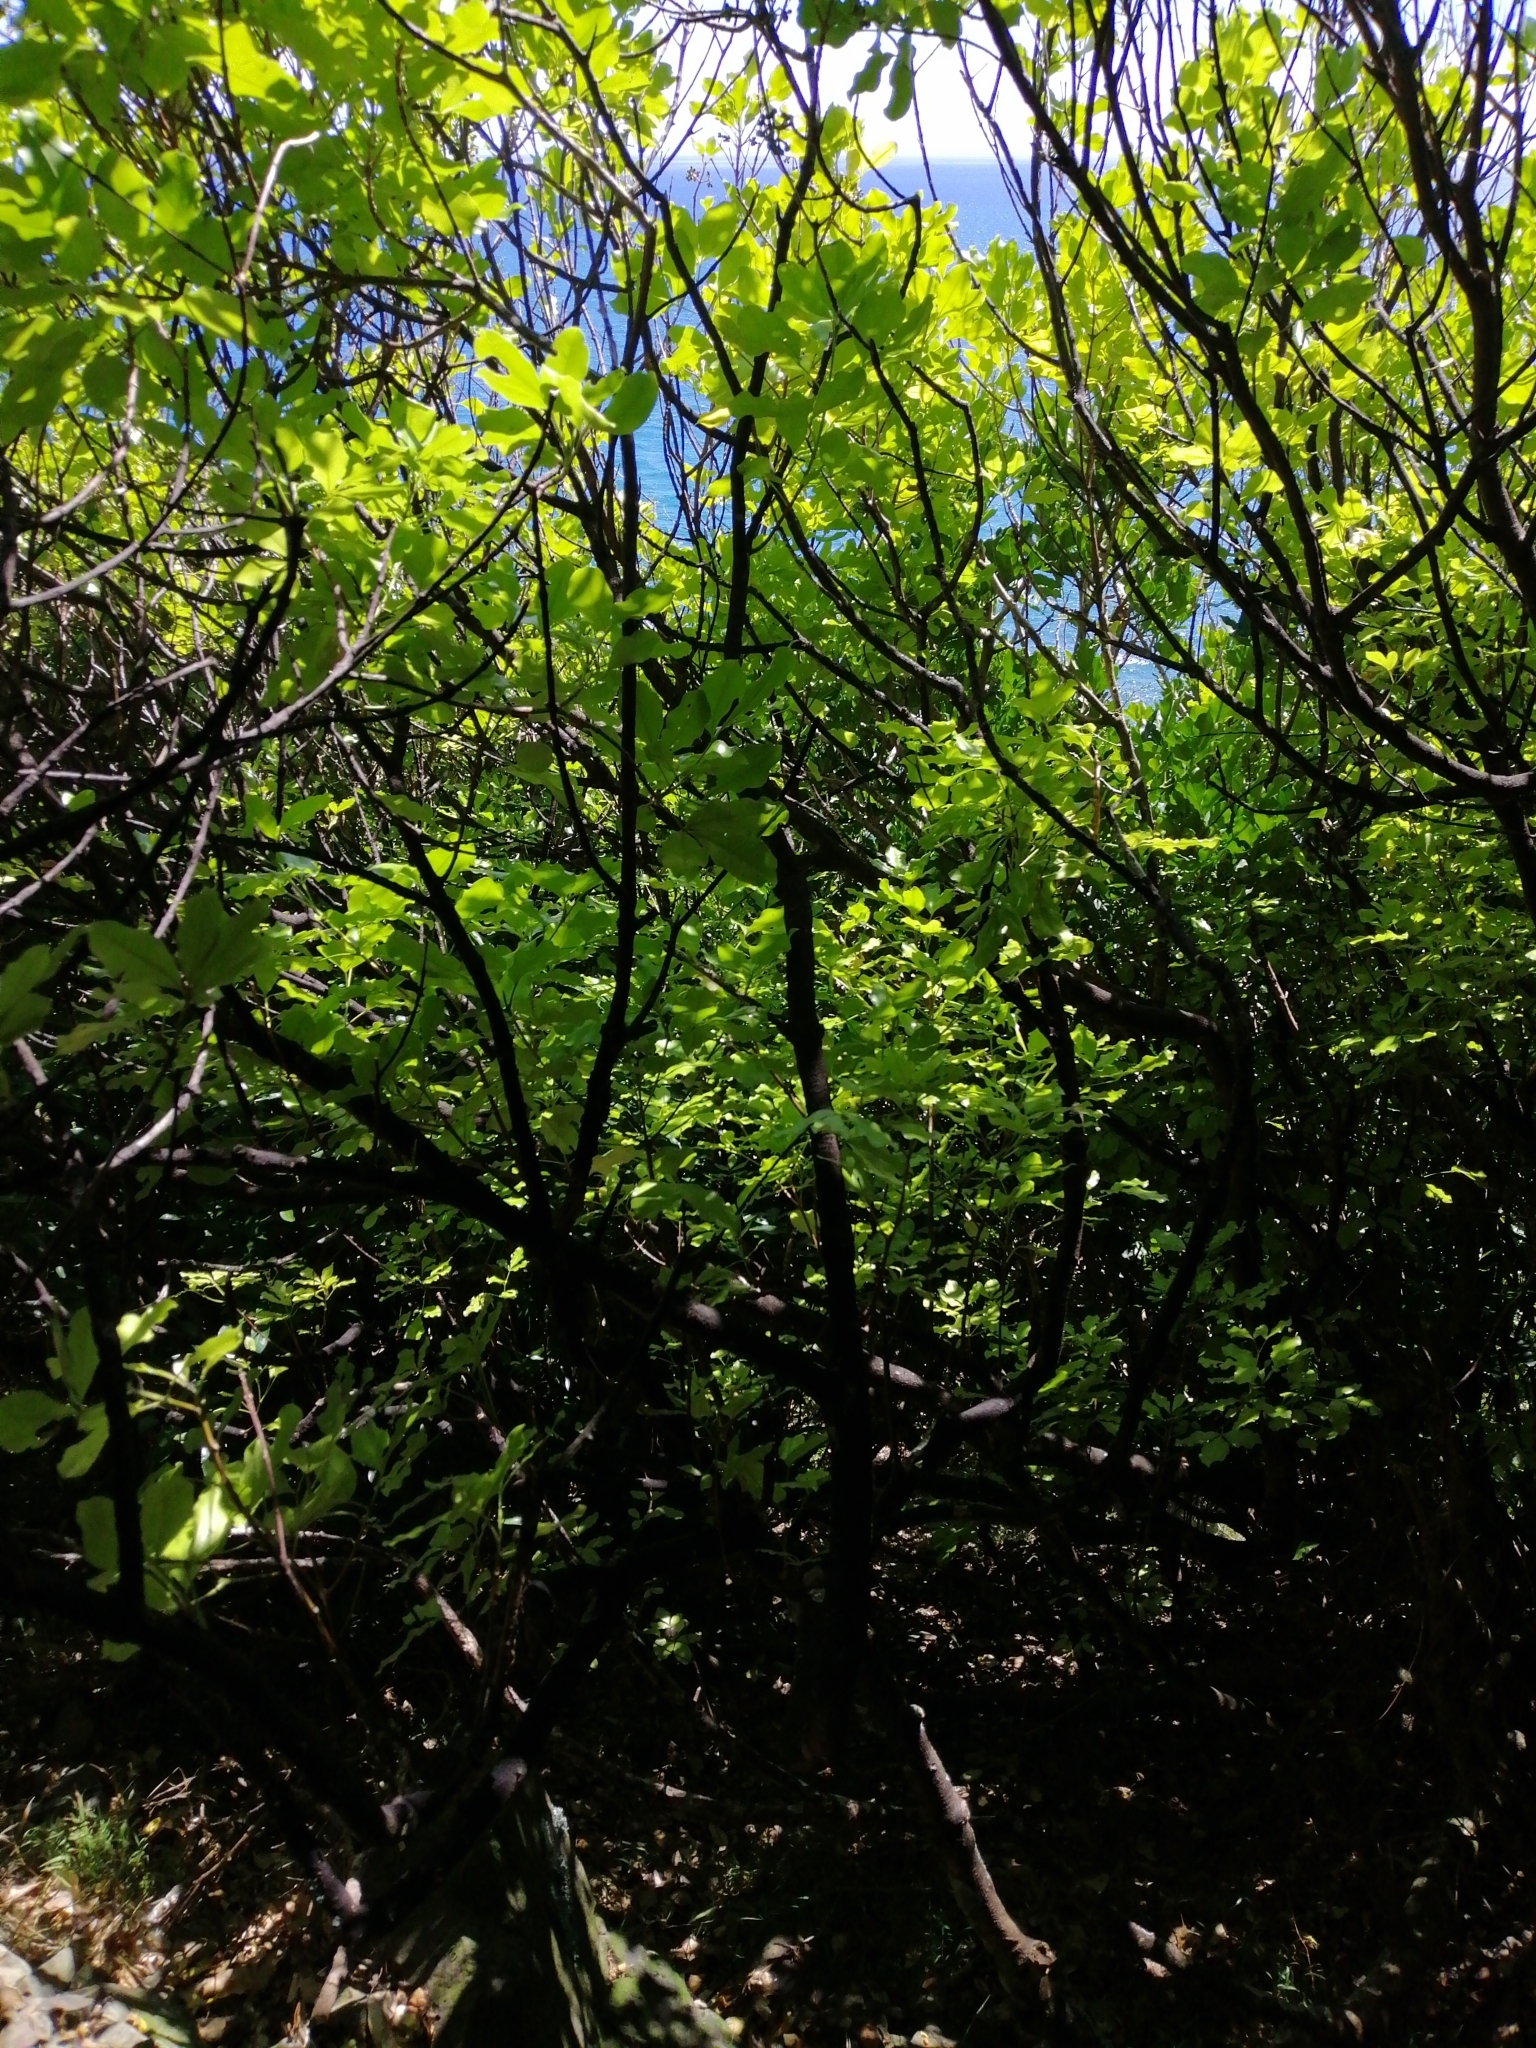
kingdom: Plantae
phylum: Tracheophyta
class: Magnoliopsida
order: Sapindales
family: Rutaceae
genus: Melicope
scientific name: Melicope ternata
